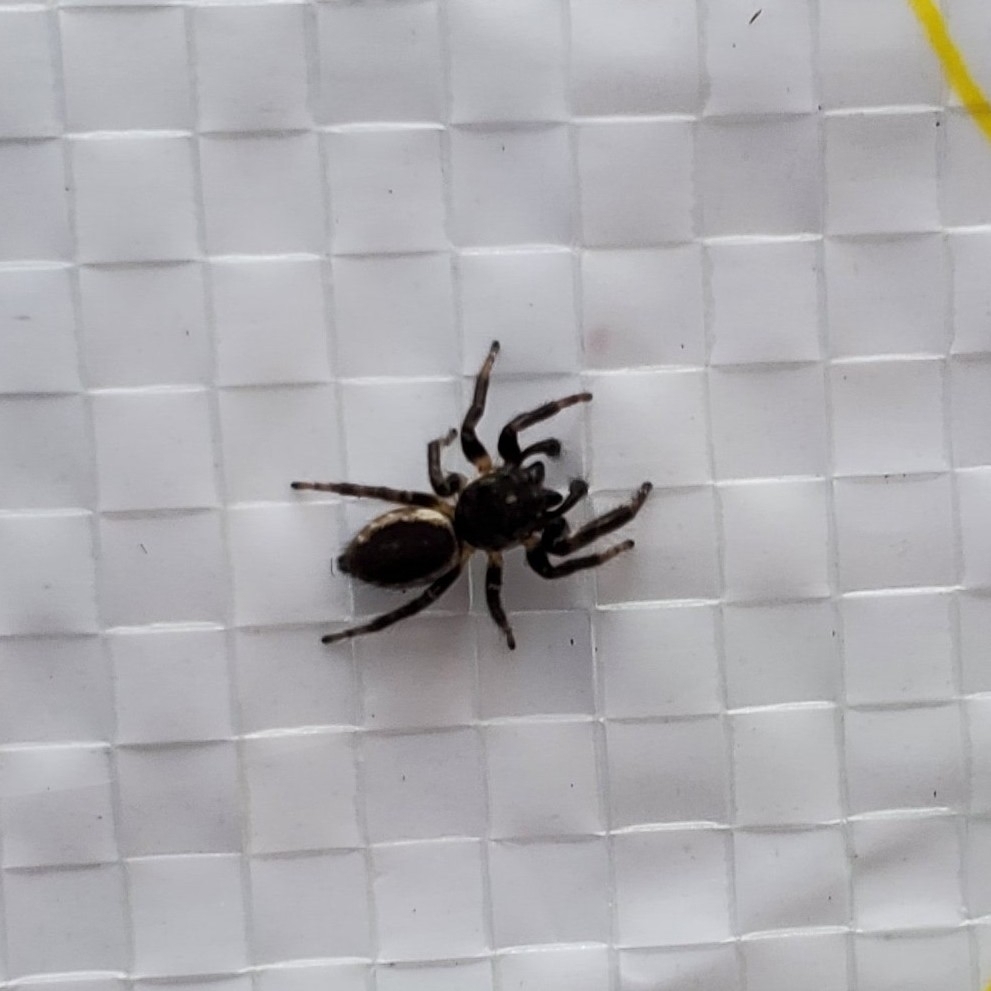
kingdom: Animalia
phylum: Arthropoda
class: Arachnida
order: Araneae
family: Salticidae
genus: Eris
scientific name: Eris militaris
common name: Bronze jumper
